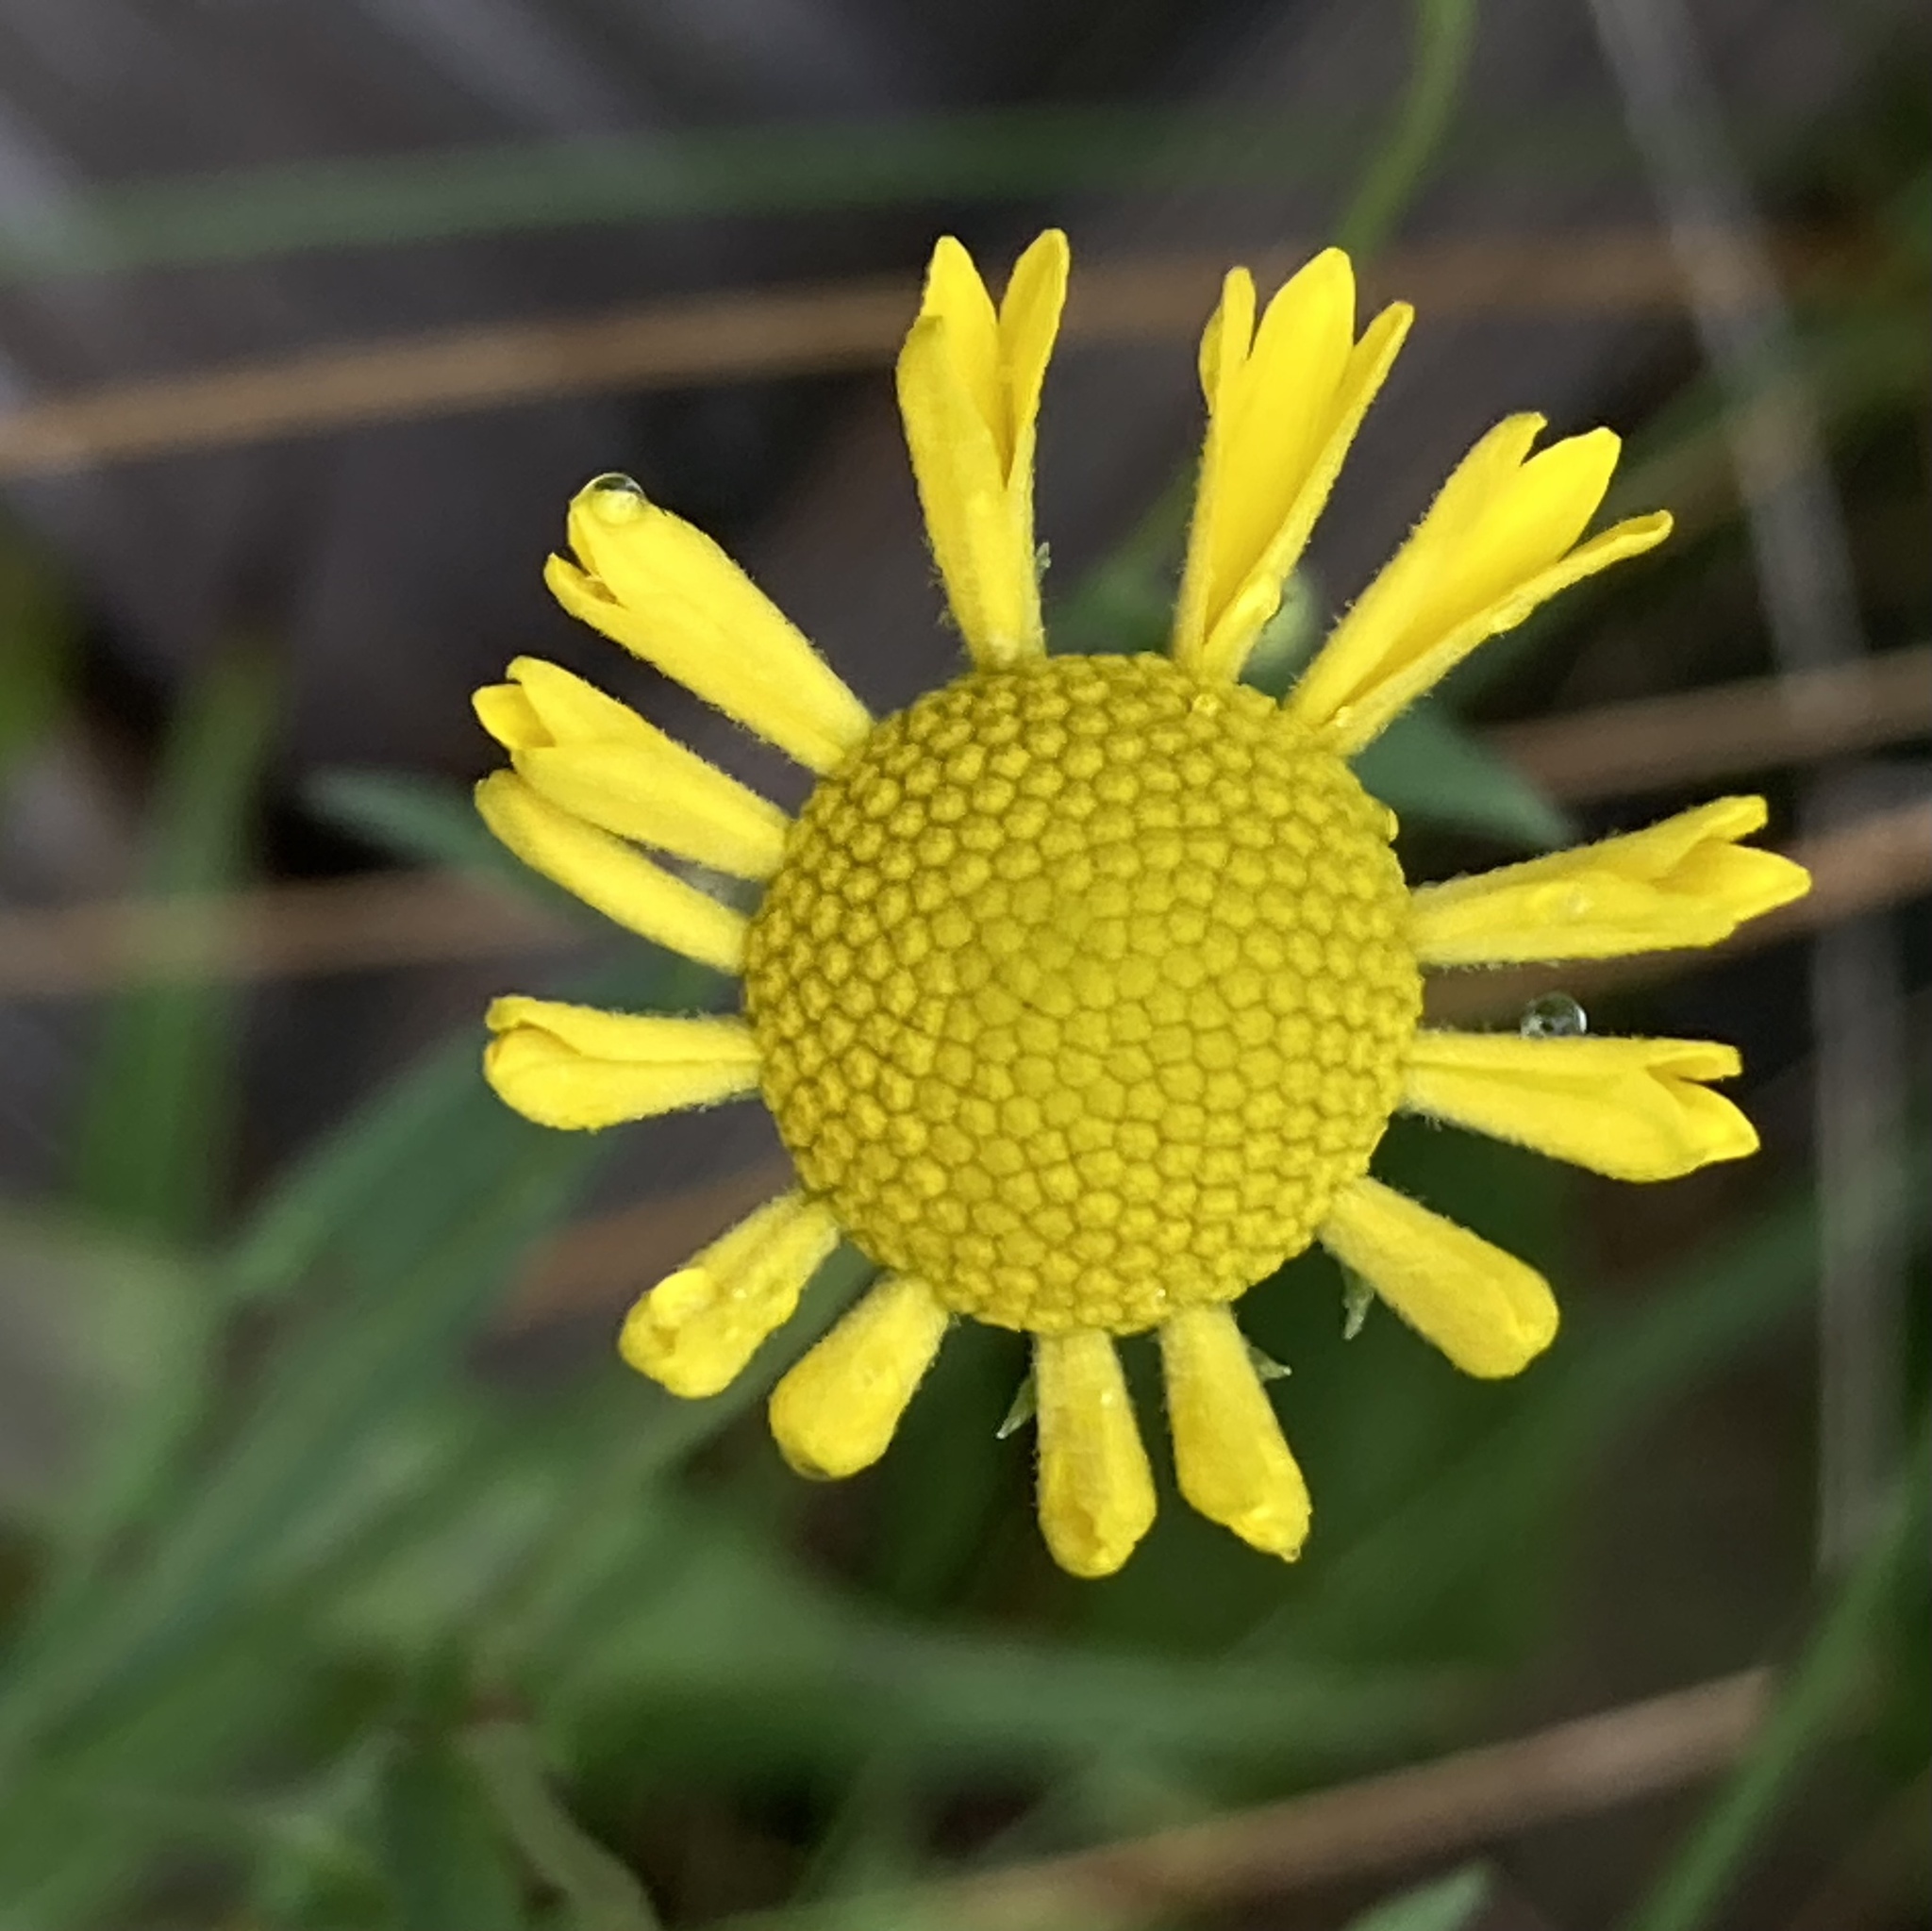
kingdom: Plantae
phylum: Tracheophyta
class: Magnoliopsida
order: Asterales
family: Asteraceae
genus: Helenium
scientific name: Helenium autumnale
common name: Sneezeweed
